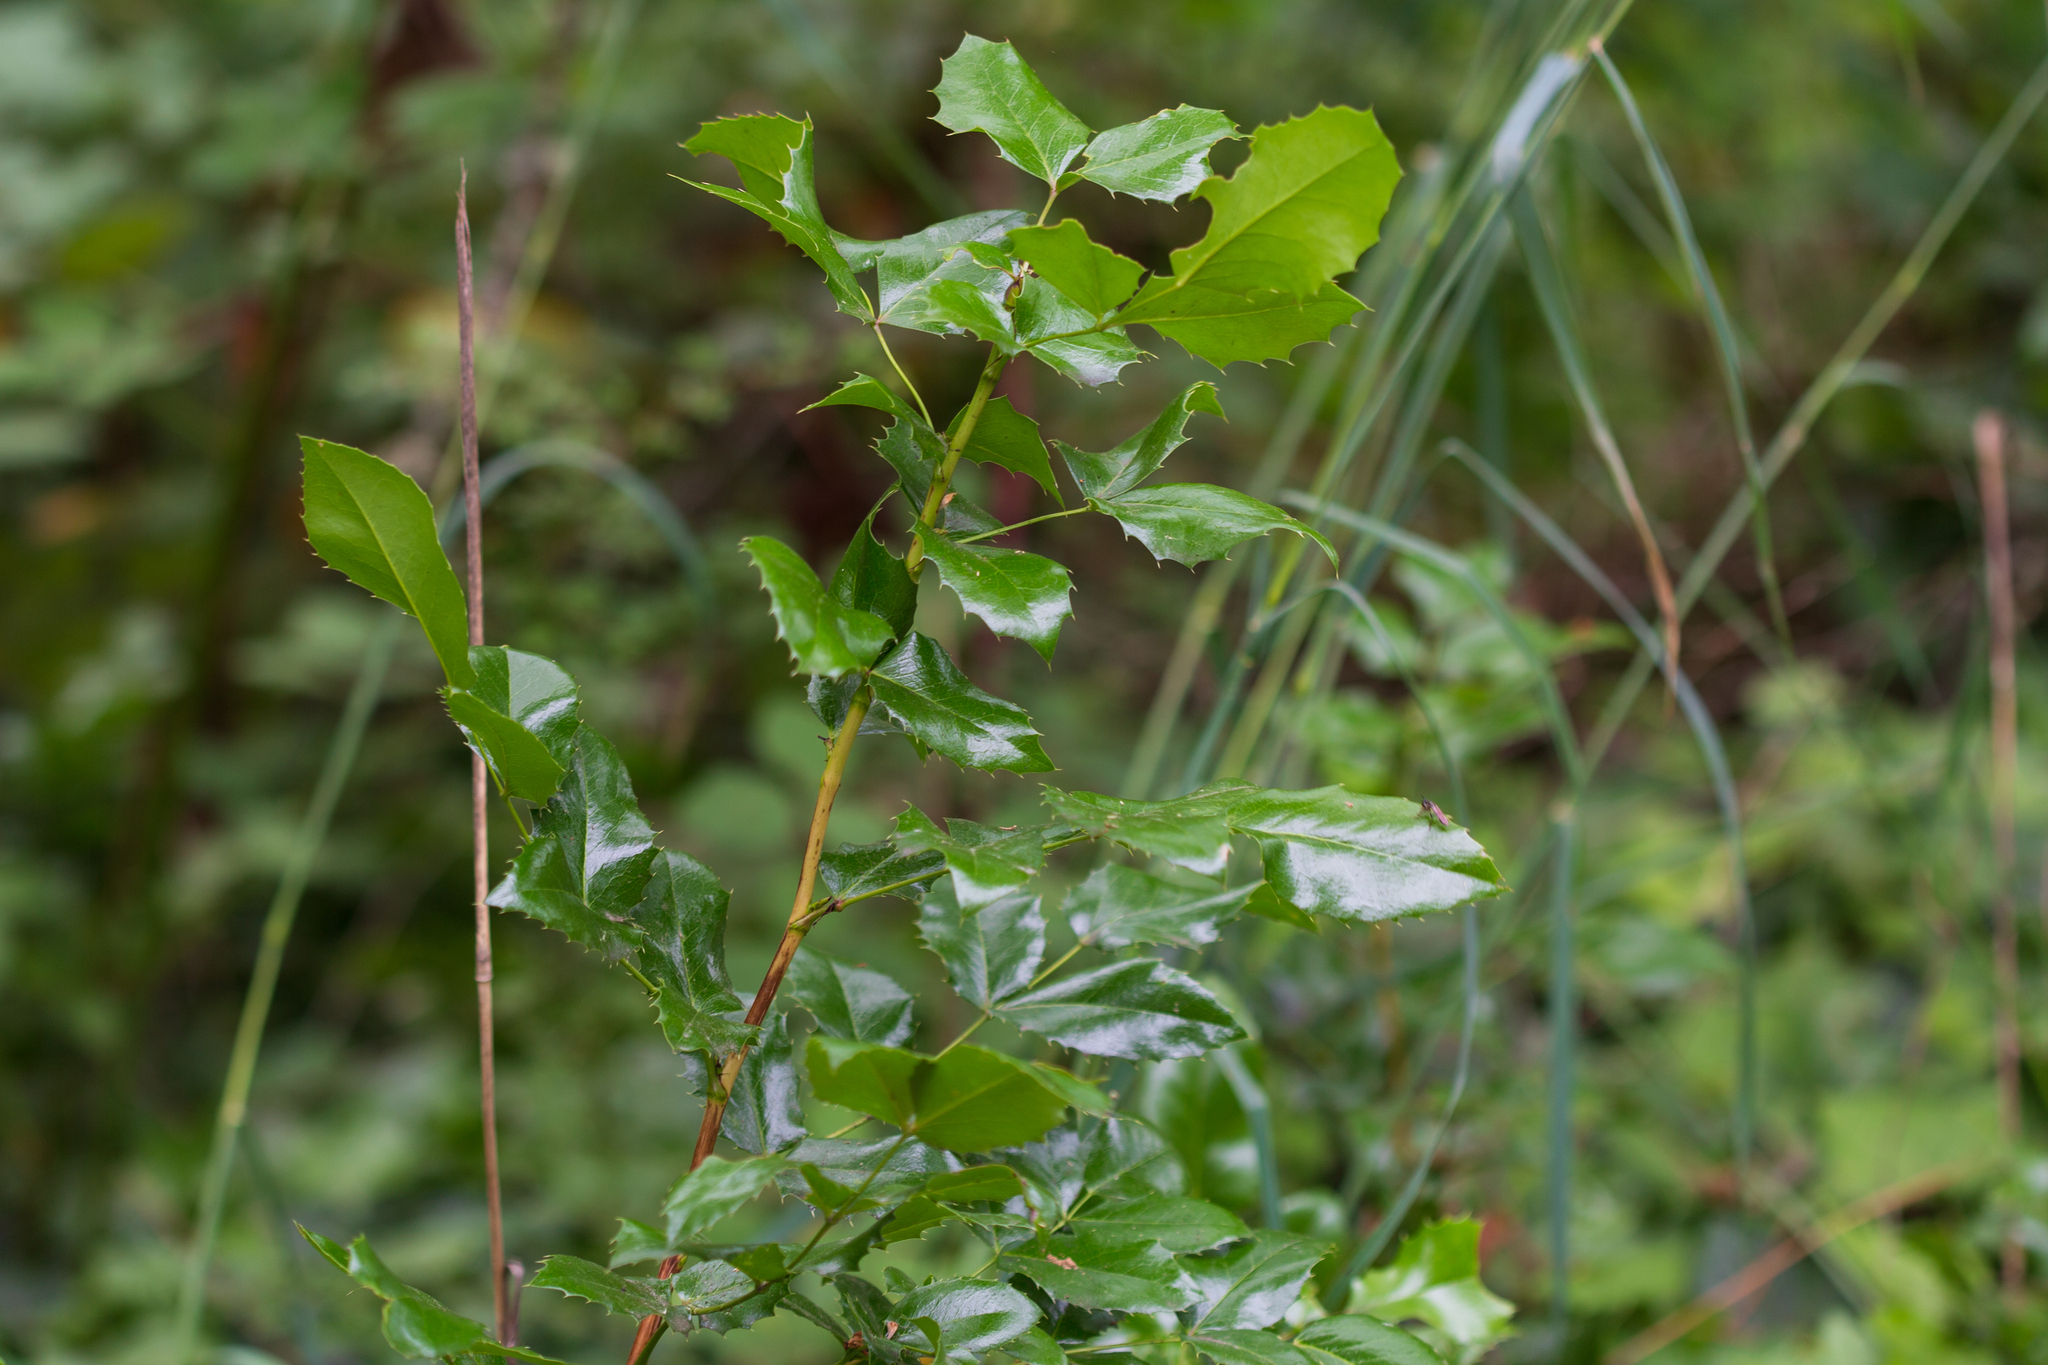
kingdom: Plantae
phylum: Tracheophyta
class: Magnoliopsida
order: Ranunculales
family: Berberidaceae
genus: Mahonia
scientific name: Mahonia aquifolium
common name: Oregon-grape
